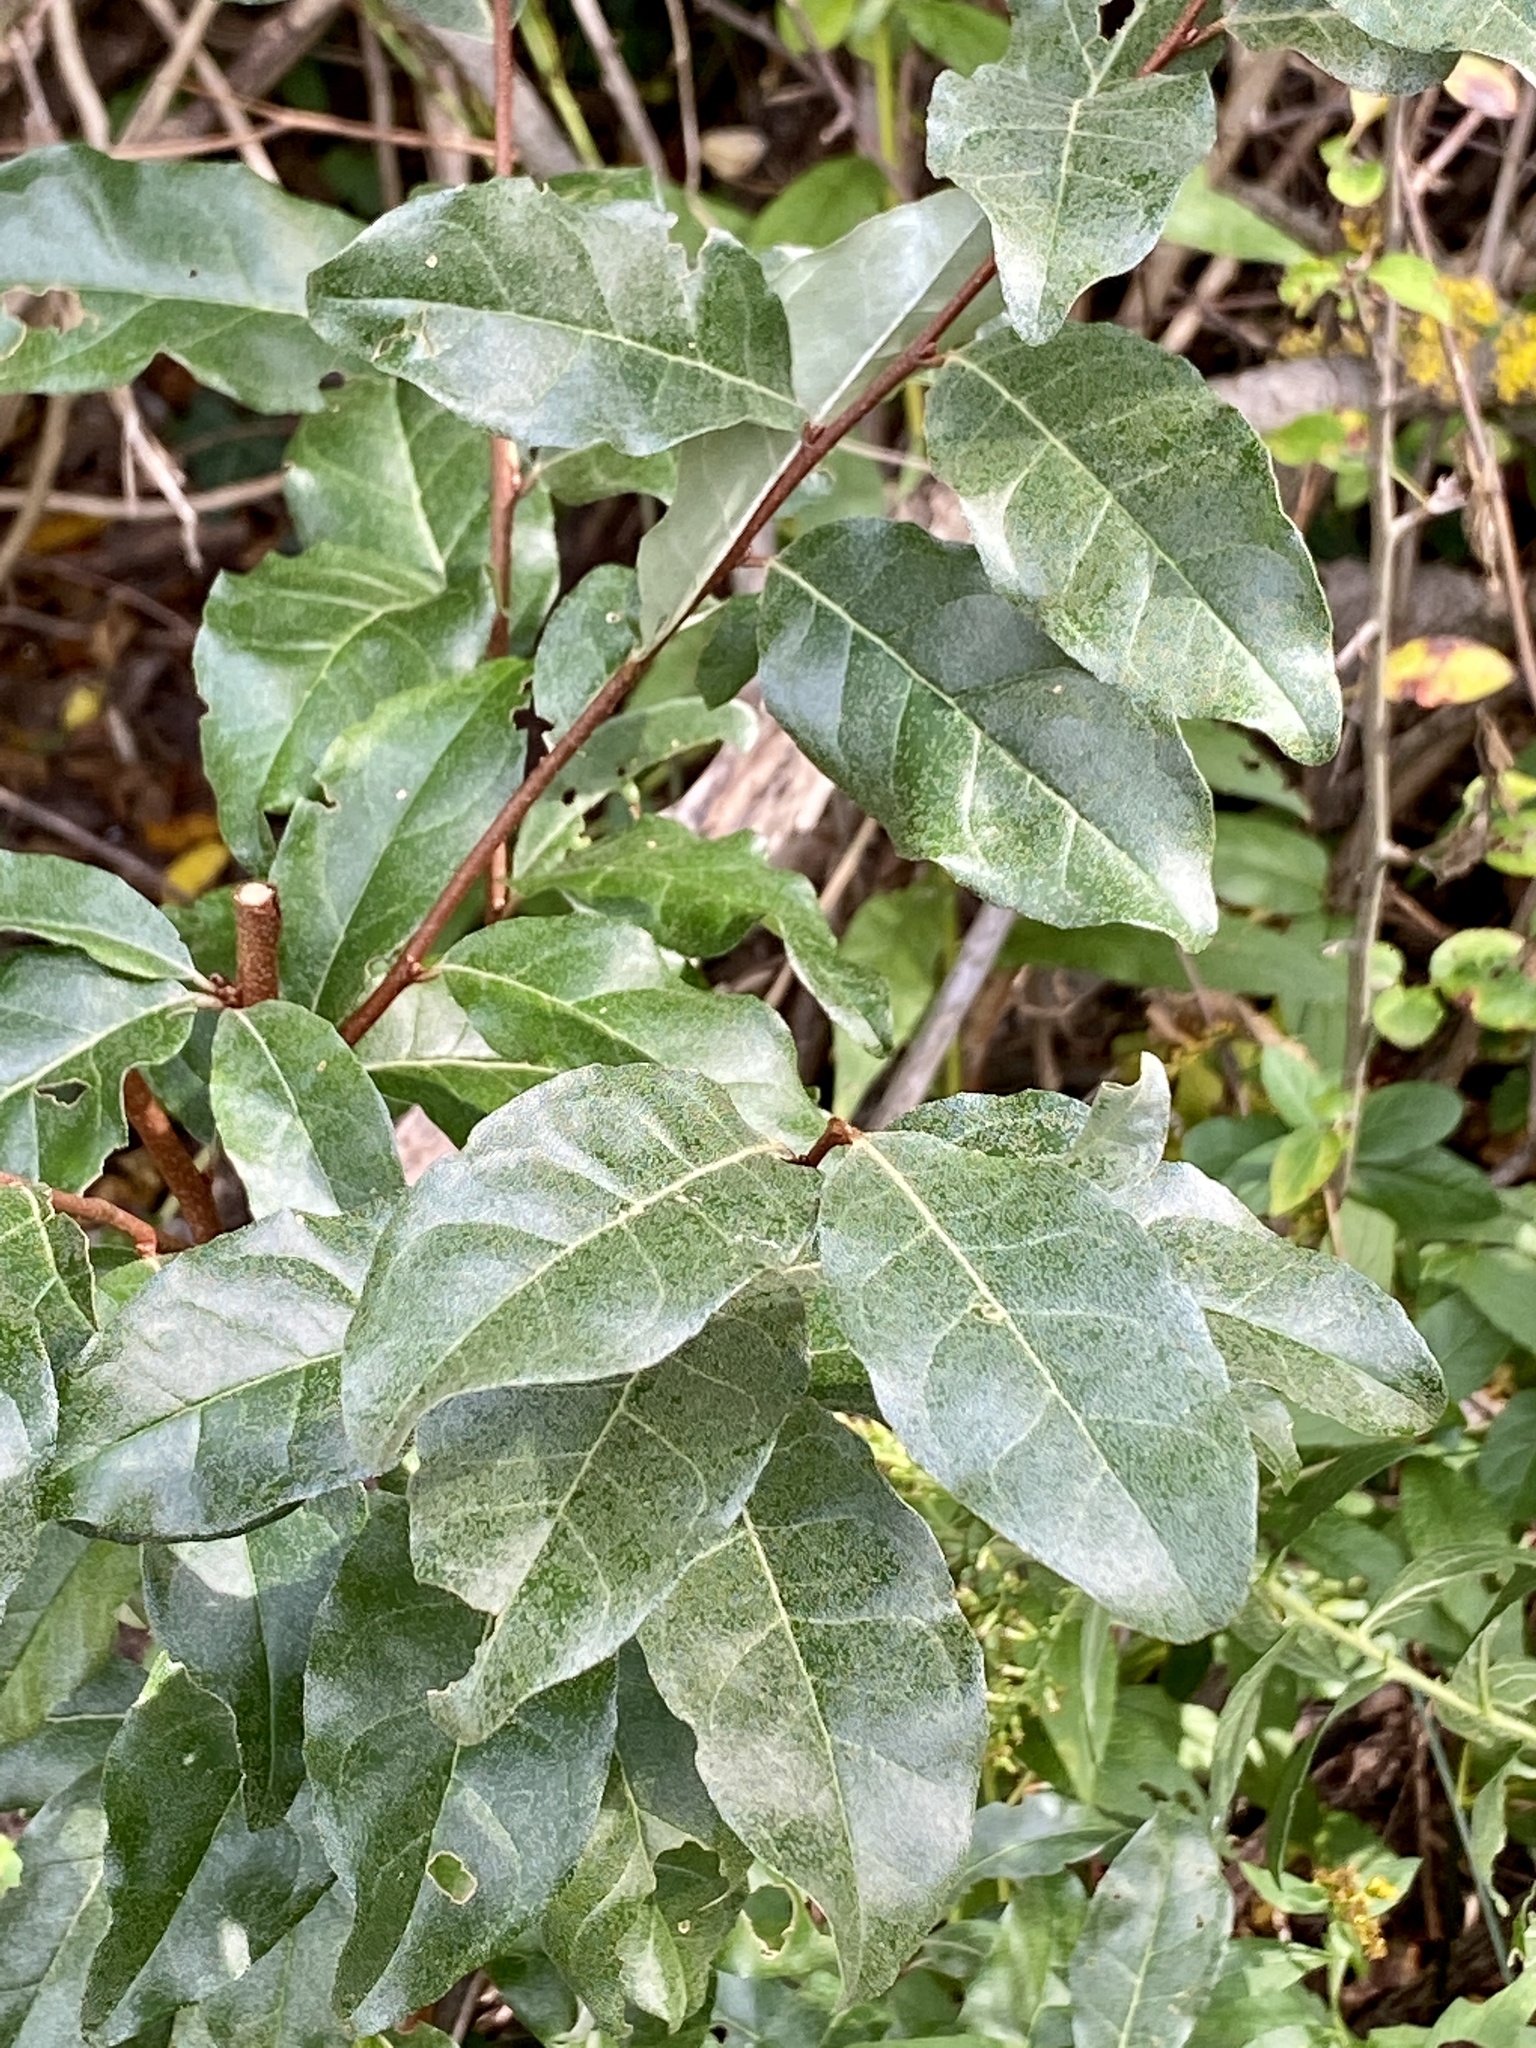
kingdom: Plantae
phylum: Tracheophyta
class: Magnoliopsida
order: Rosales
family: Elaeagnaceae
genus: Elaeagnus
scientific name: Elaeagnus umbellata
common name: Autumn olive
